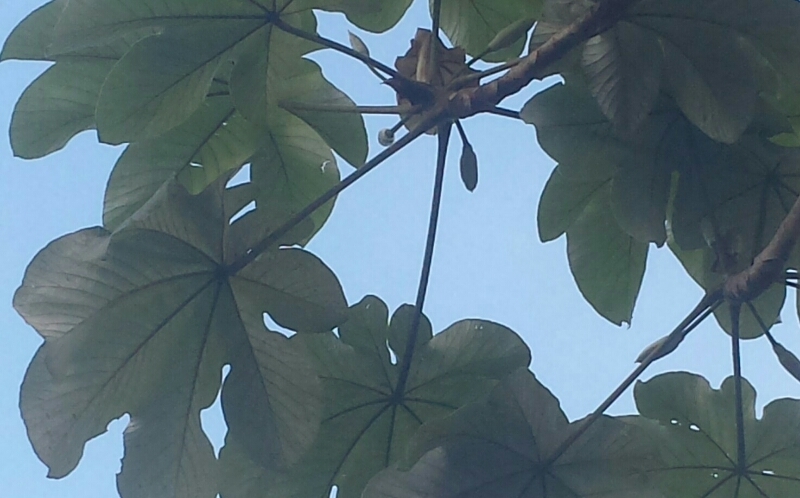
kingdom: Plantae
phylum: Tracheophyta
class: Magnoliopsida
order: Rosales
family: Urticaceae
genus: Cecropia
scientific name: Cecropia schreberiana
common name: Trumpet tree
